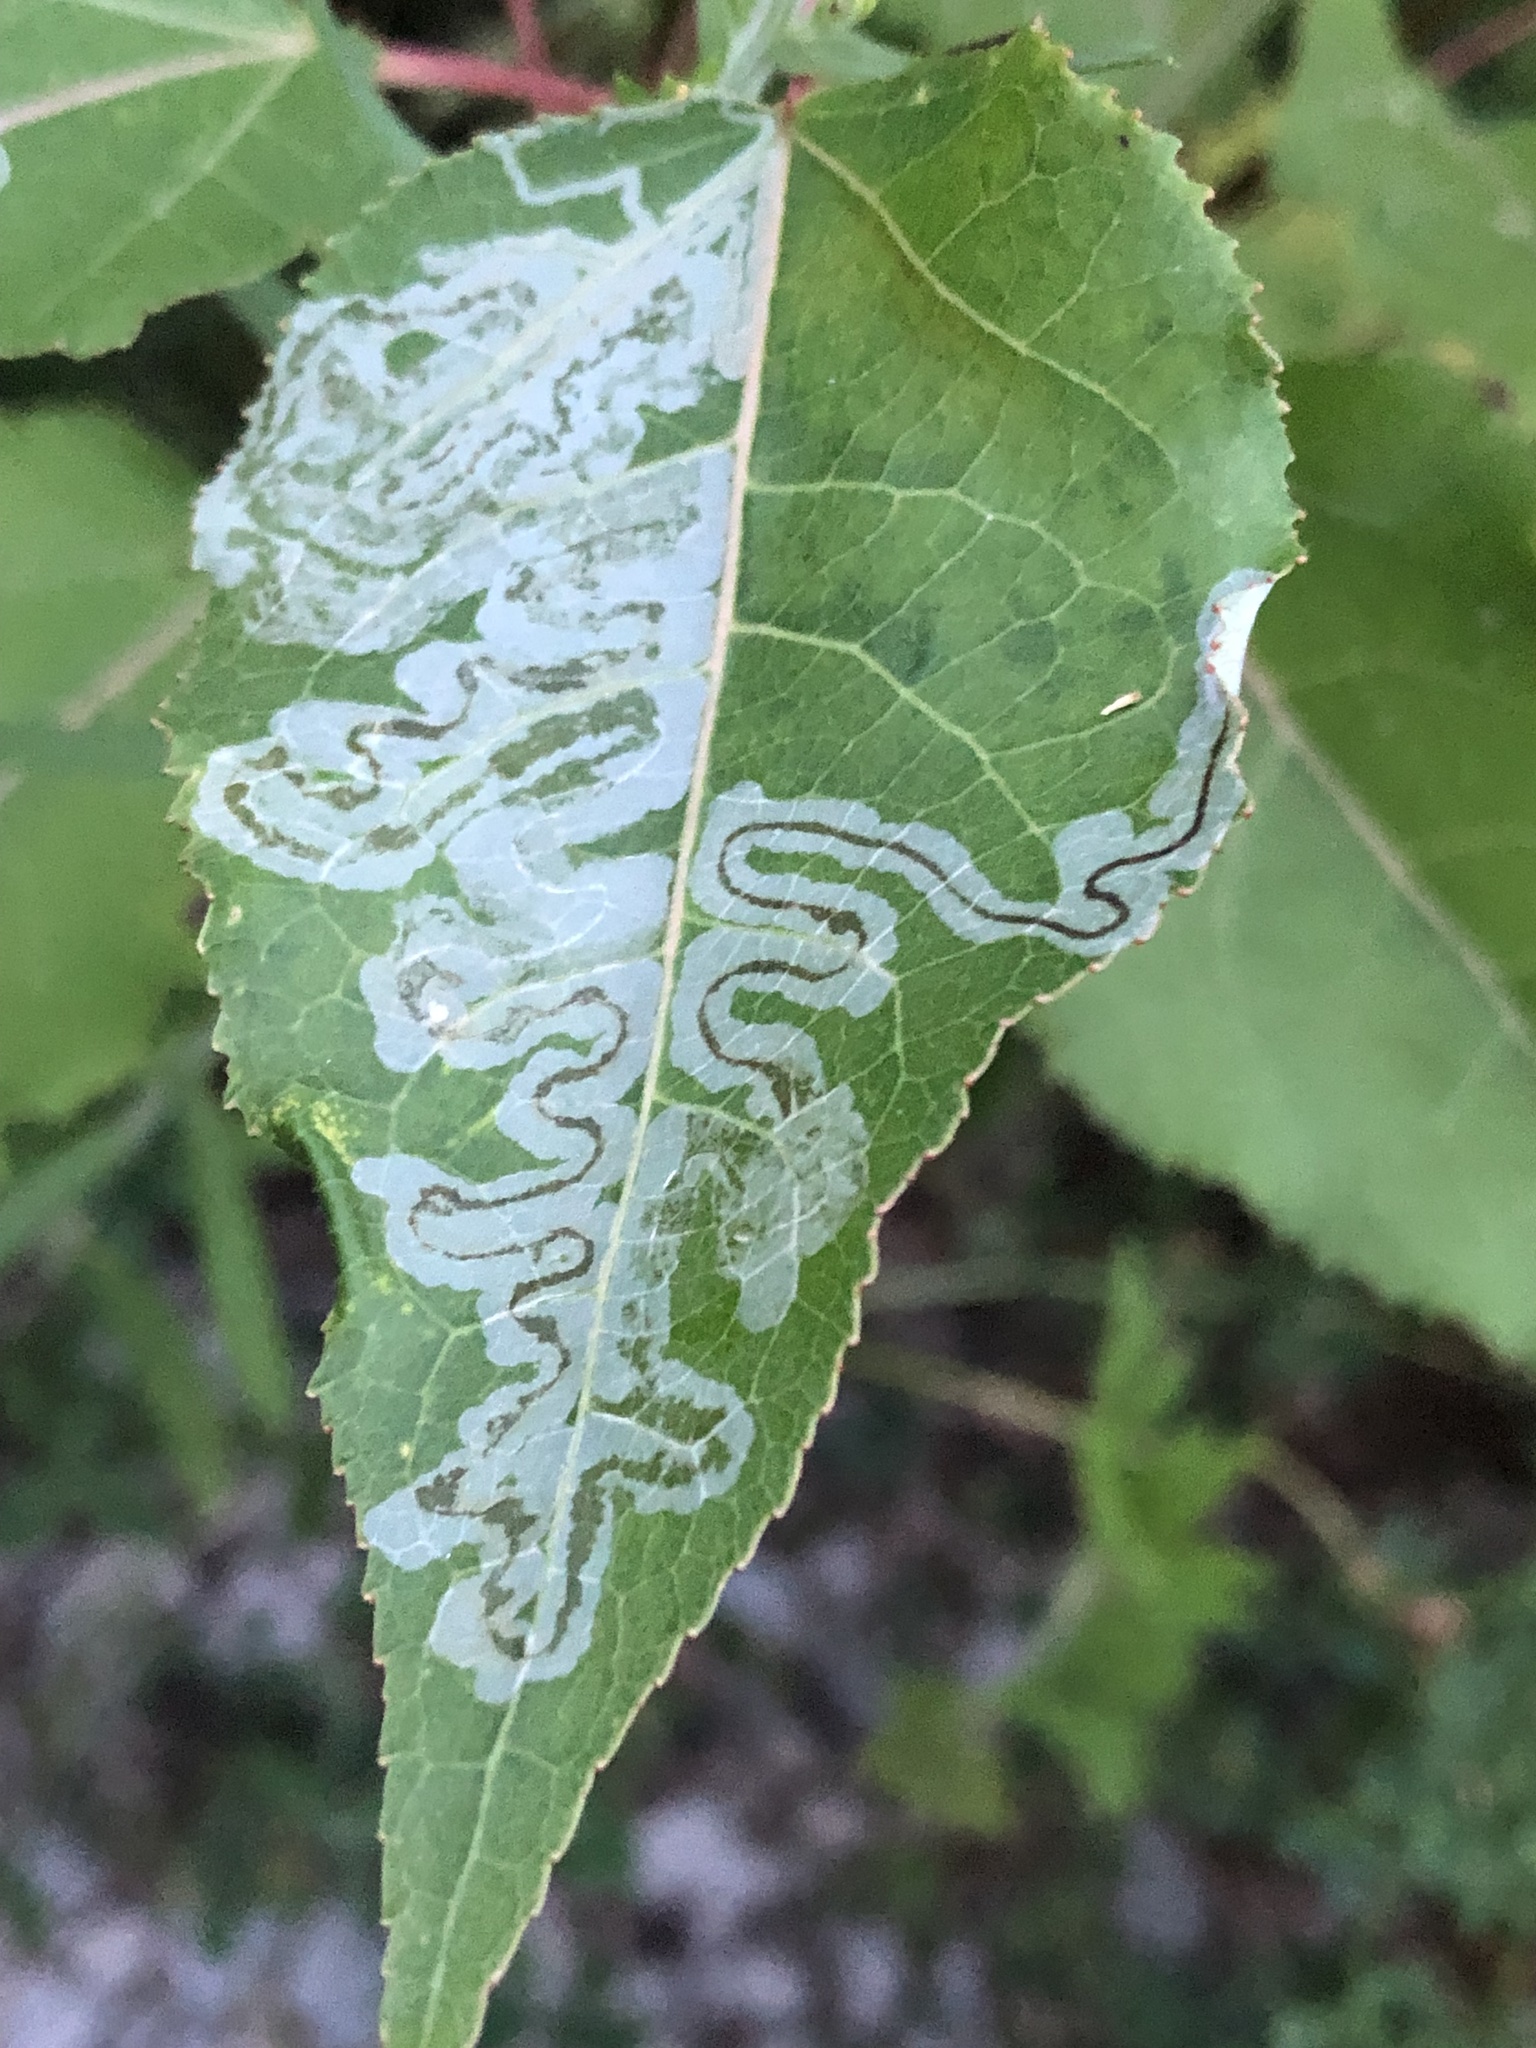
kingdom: Animalia
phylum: Arthropoda
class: Insecta
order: Lepidoptera
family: Gracillariidae
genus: Phyllocnistis
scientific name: Phyllocnistis populiella
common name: Aspen serpentine leafminer moth
